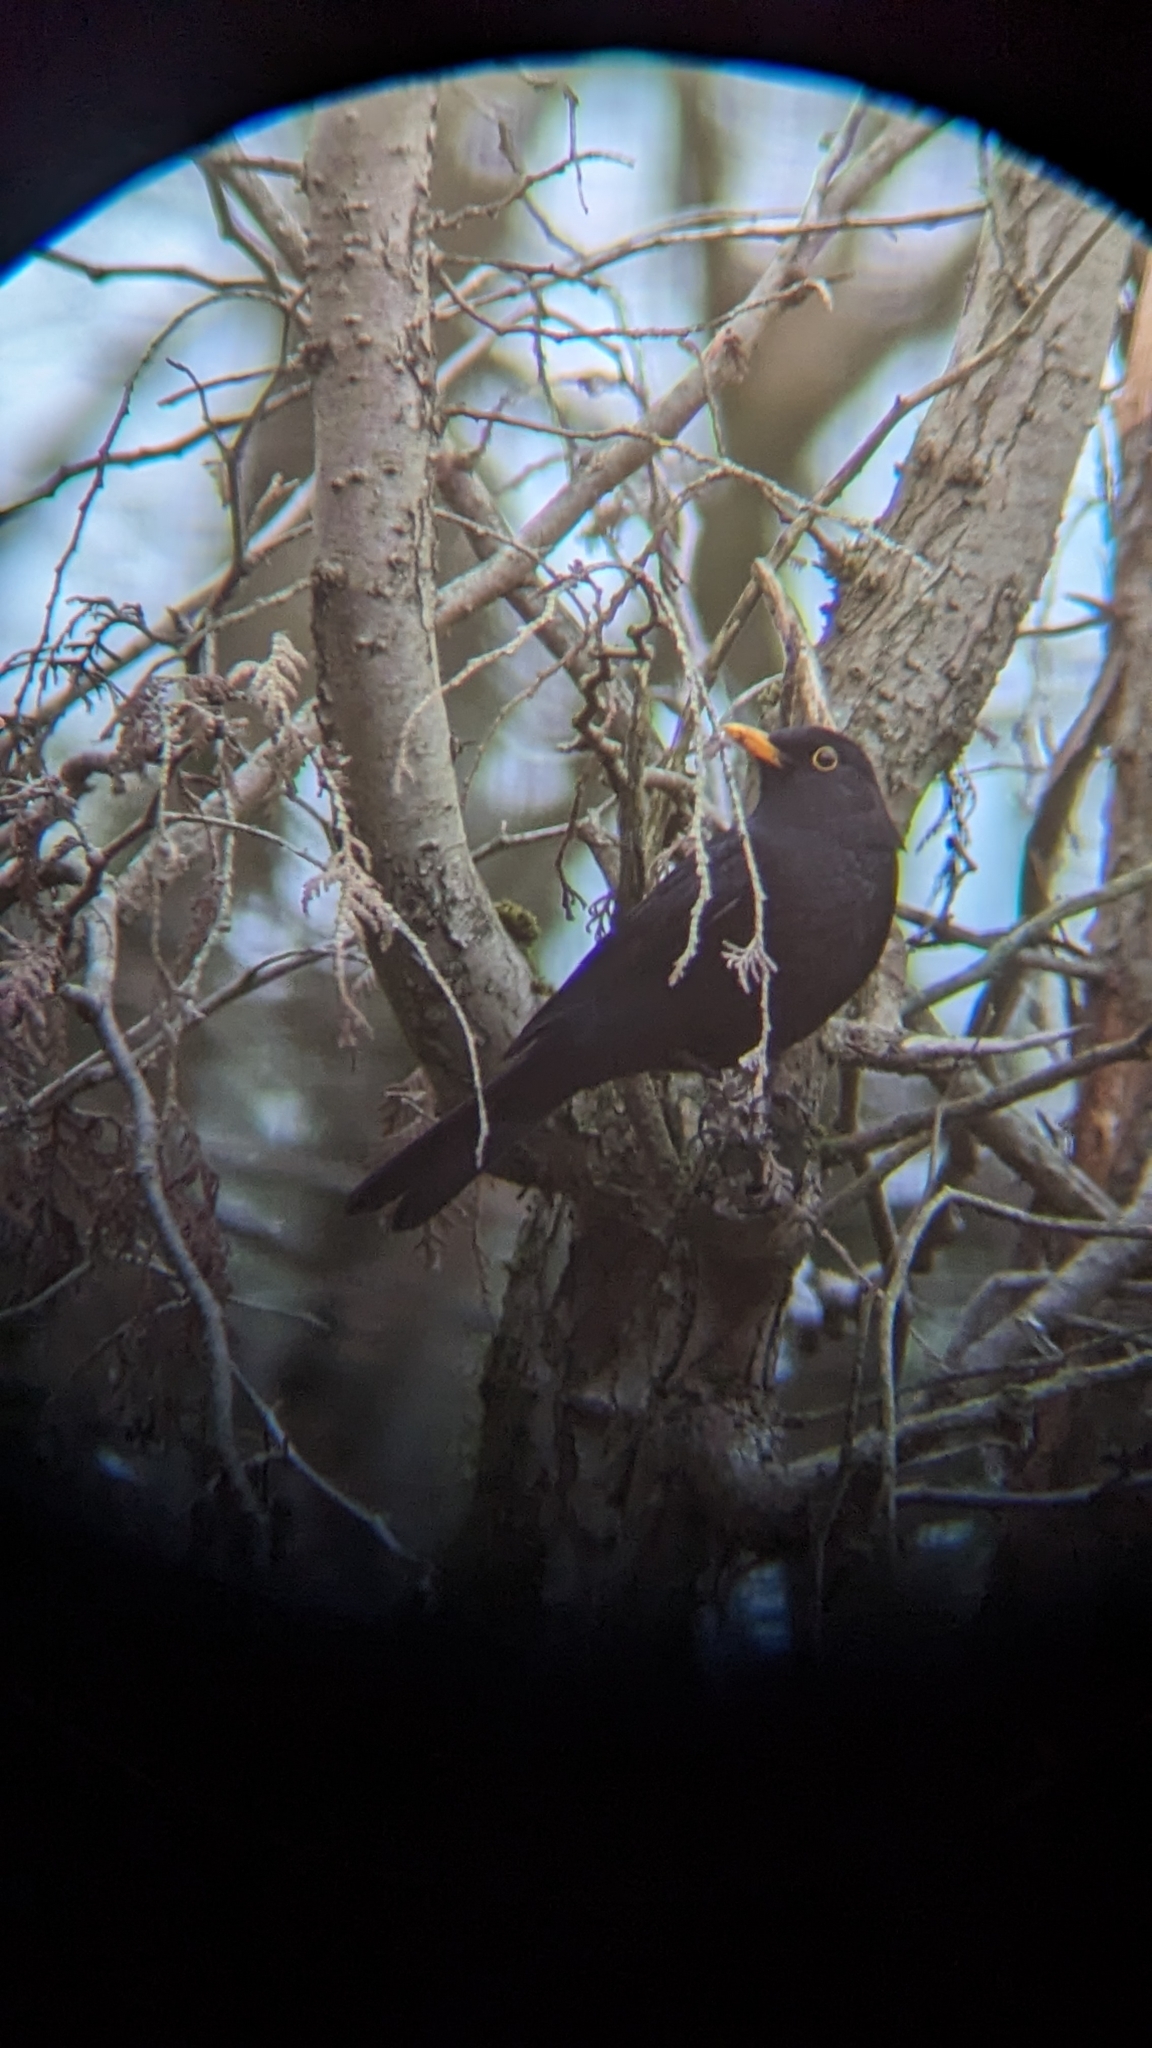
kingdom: Animalia
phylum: Chordata
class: Aves
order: Passeriformes
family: Turdidae
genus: Turdus
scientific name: Turdus merula
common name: Common blackbird
